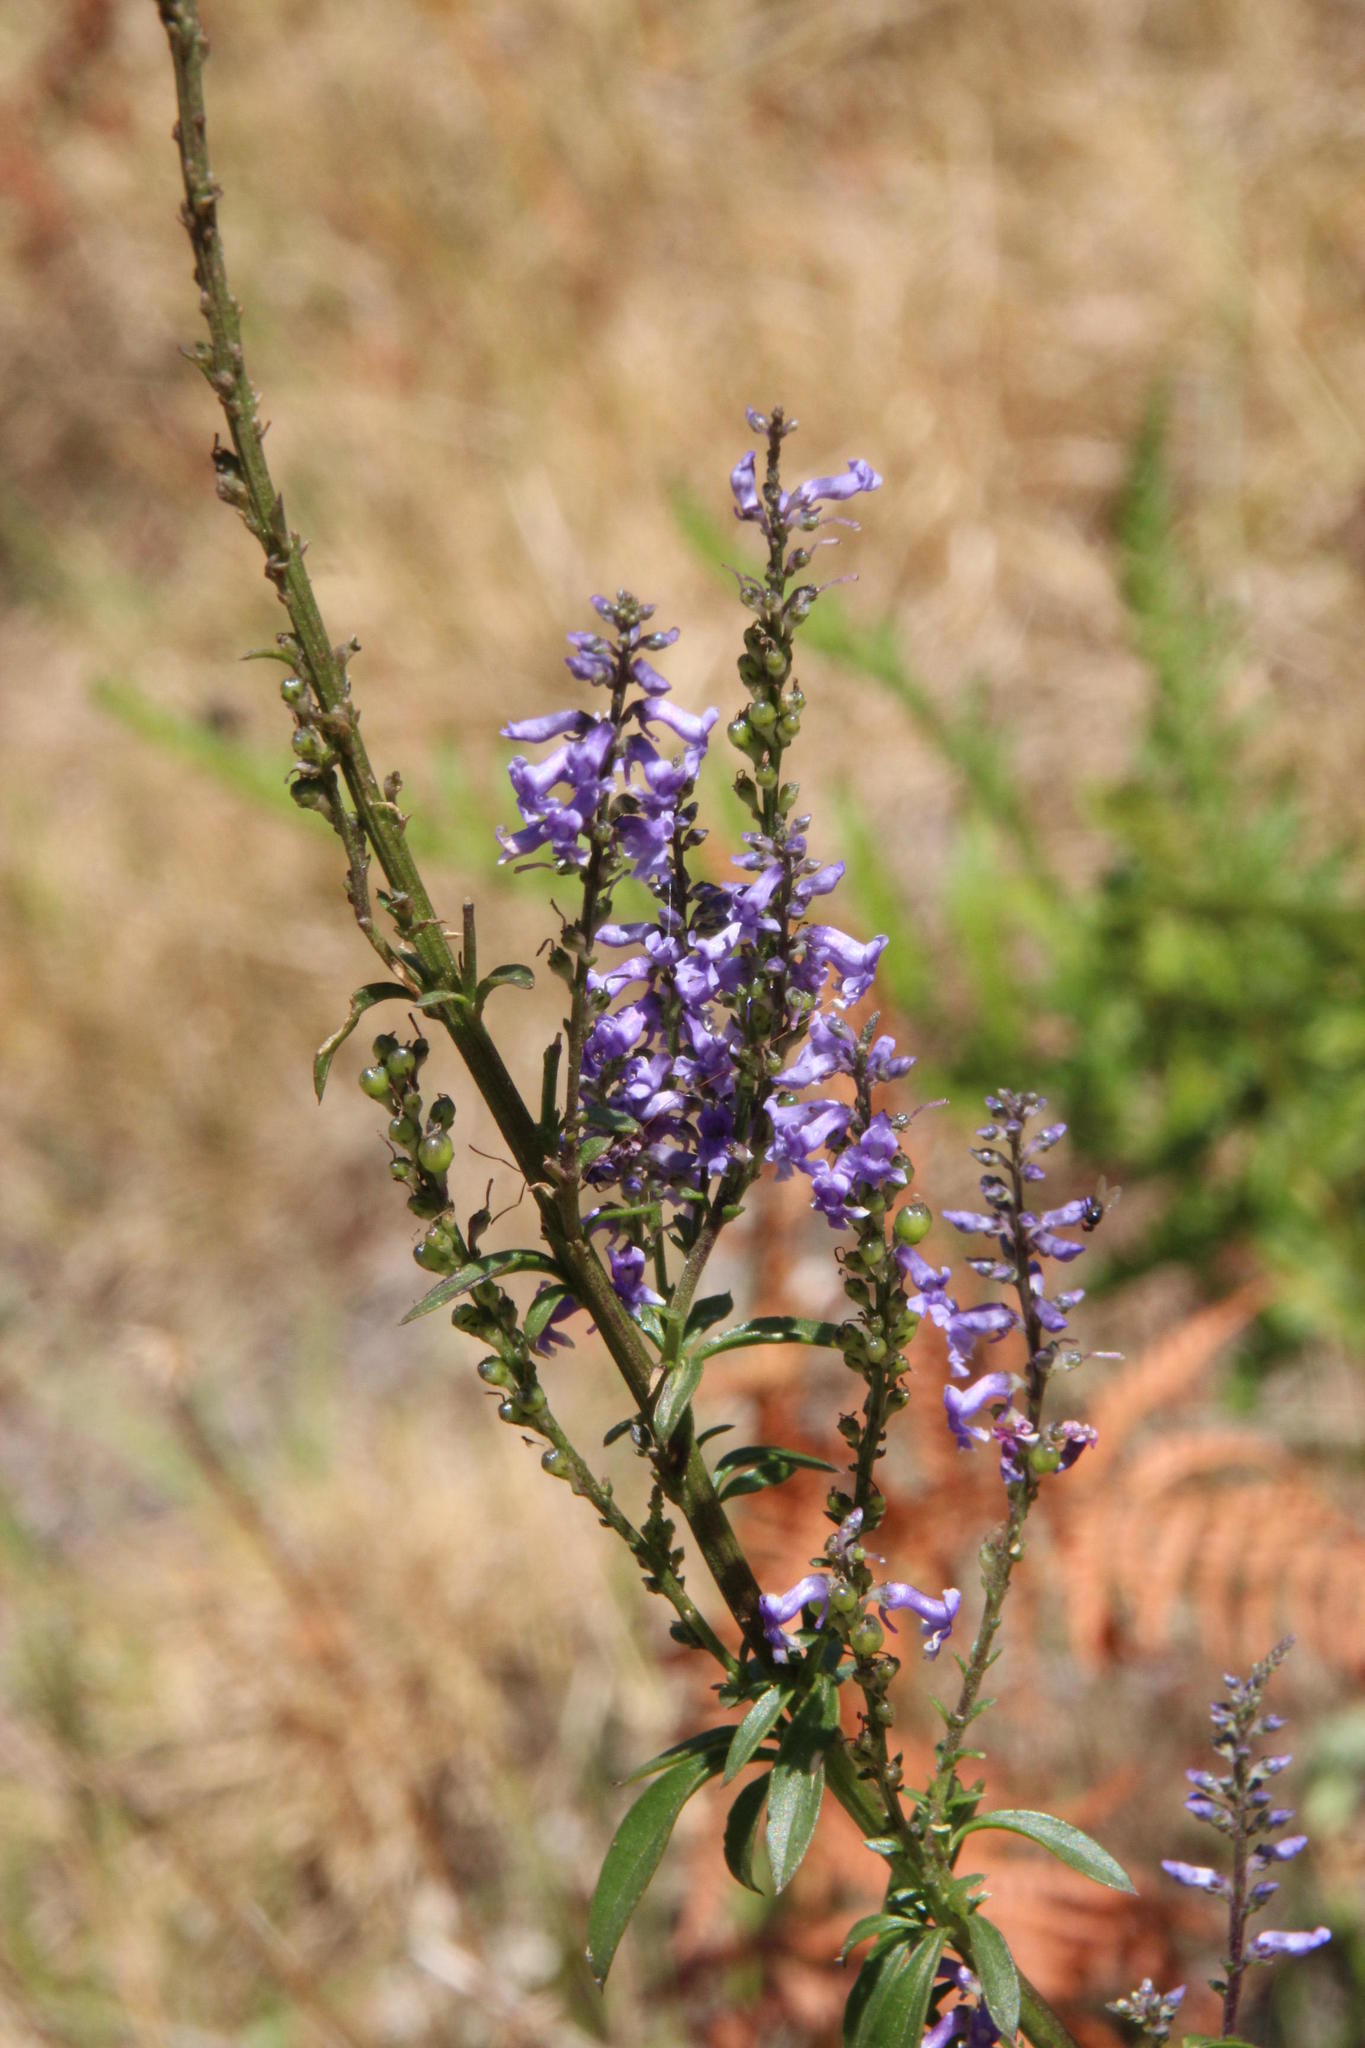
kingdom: Plantae
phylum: Tracheophyta
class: Magnoliopsida
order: Lamiales
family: Plantaginaceae
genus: Anarrhinum
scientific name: Anarrhinum bellidifolium
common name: Daisy-leaved toadflax
